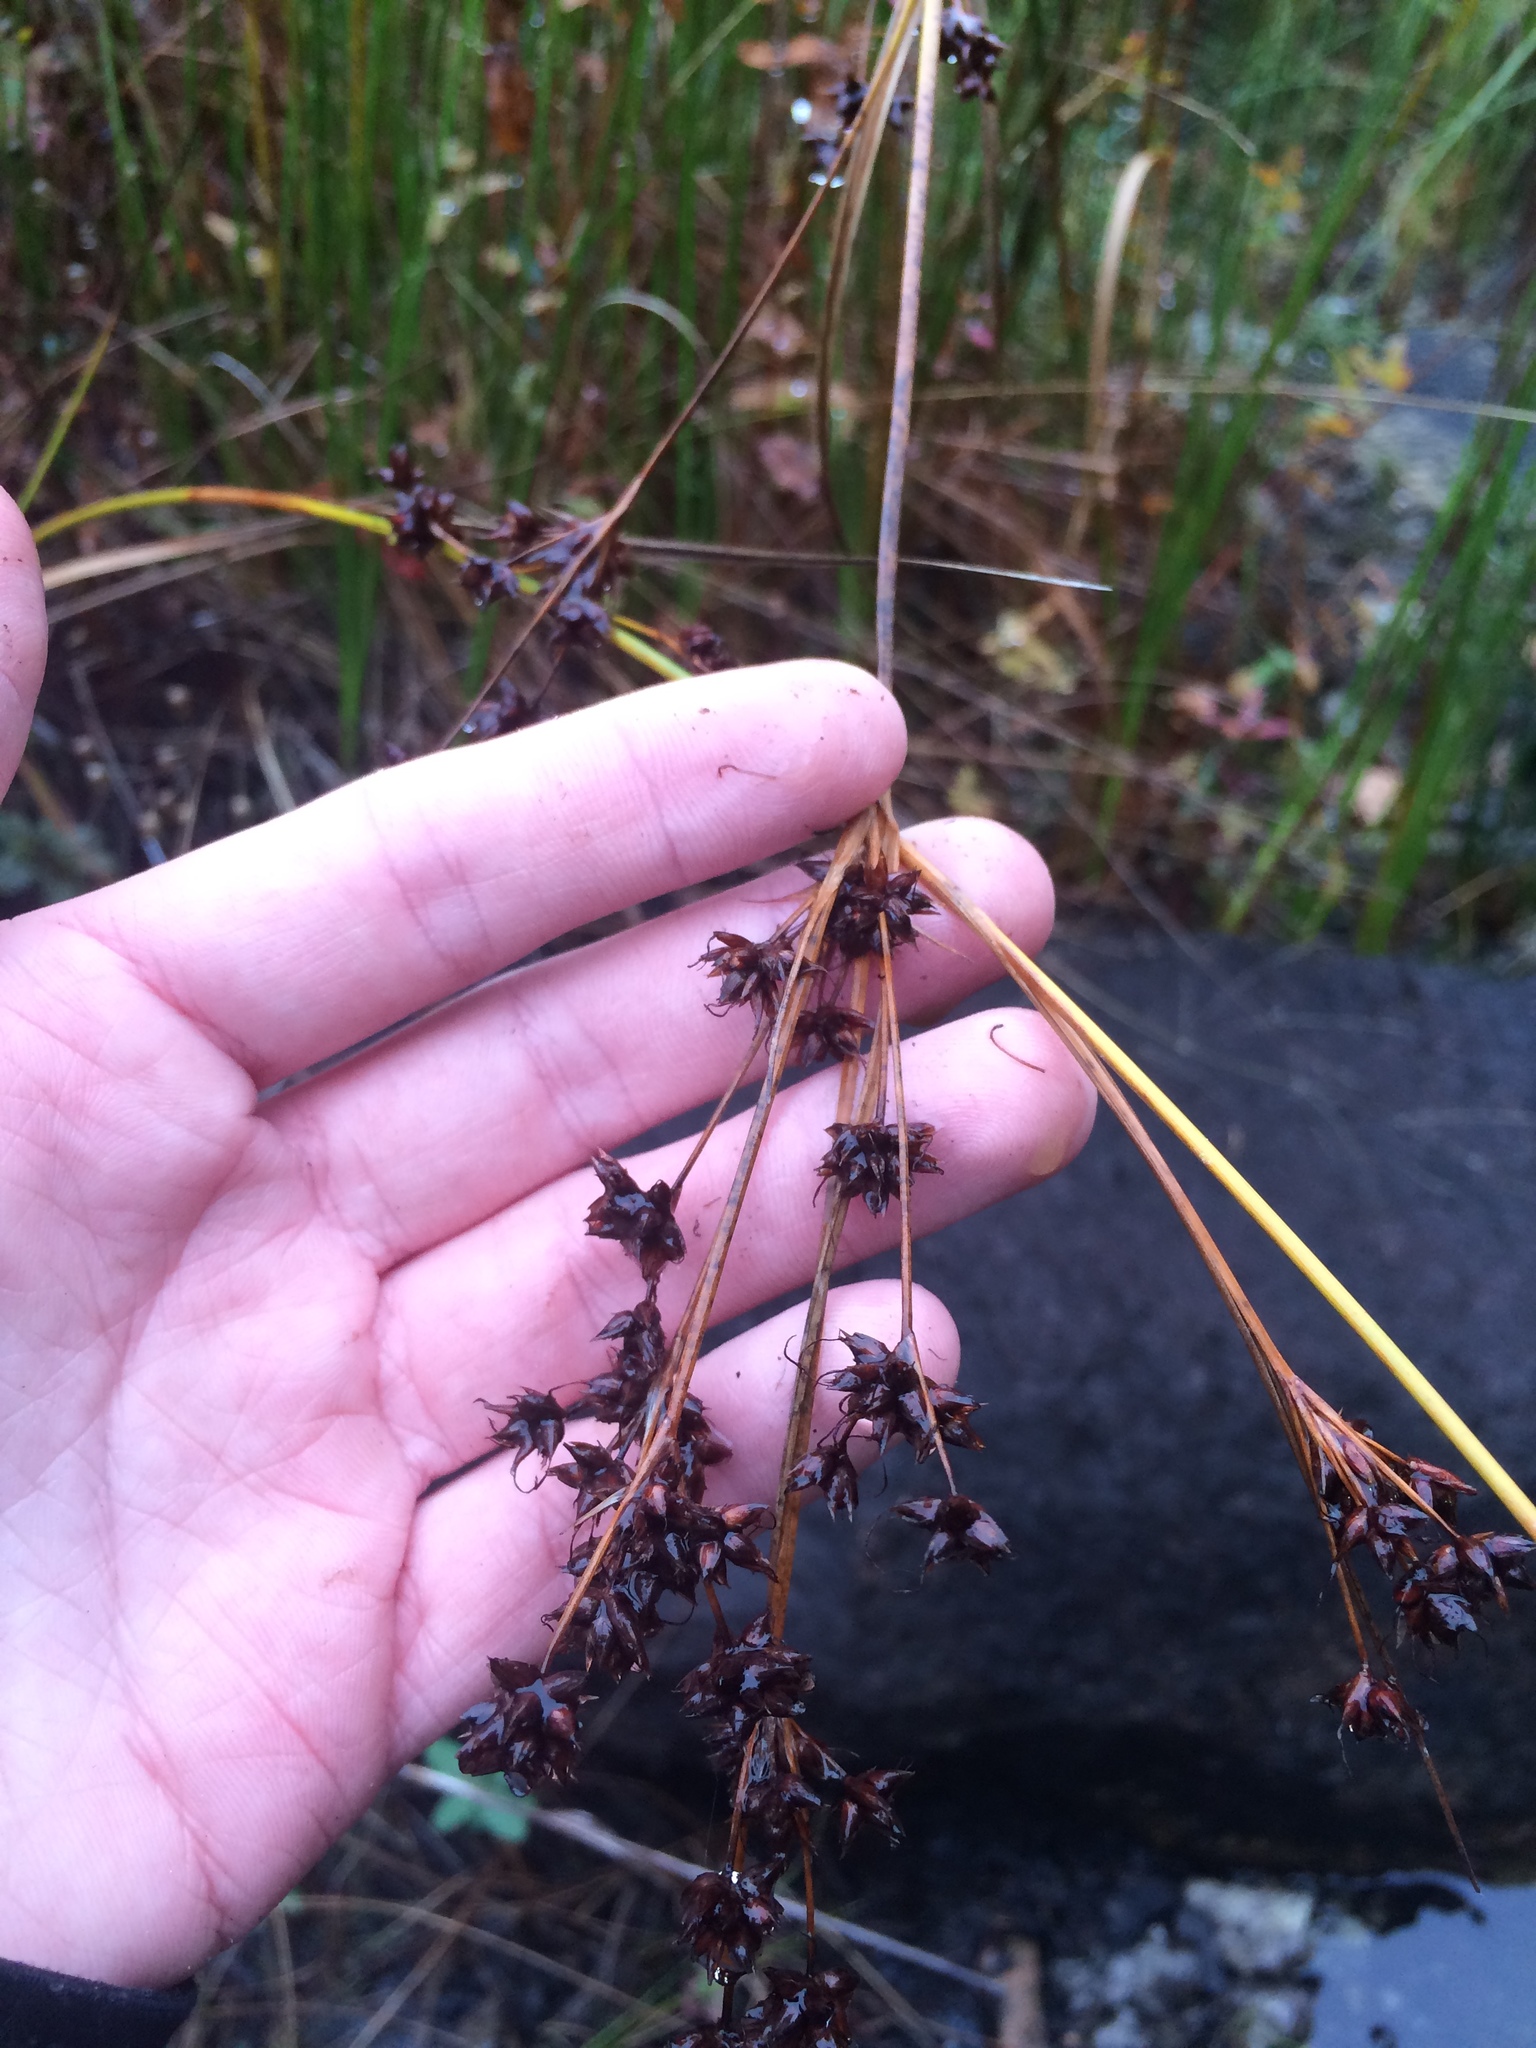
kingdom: Plantae
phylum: Tracheophyta
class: Liliopsida
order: Poales
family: Cyperaceae
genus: Cladium
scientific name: Cladium mariscoides
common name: Smooth sawgrass
